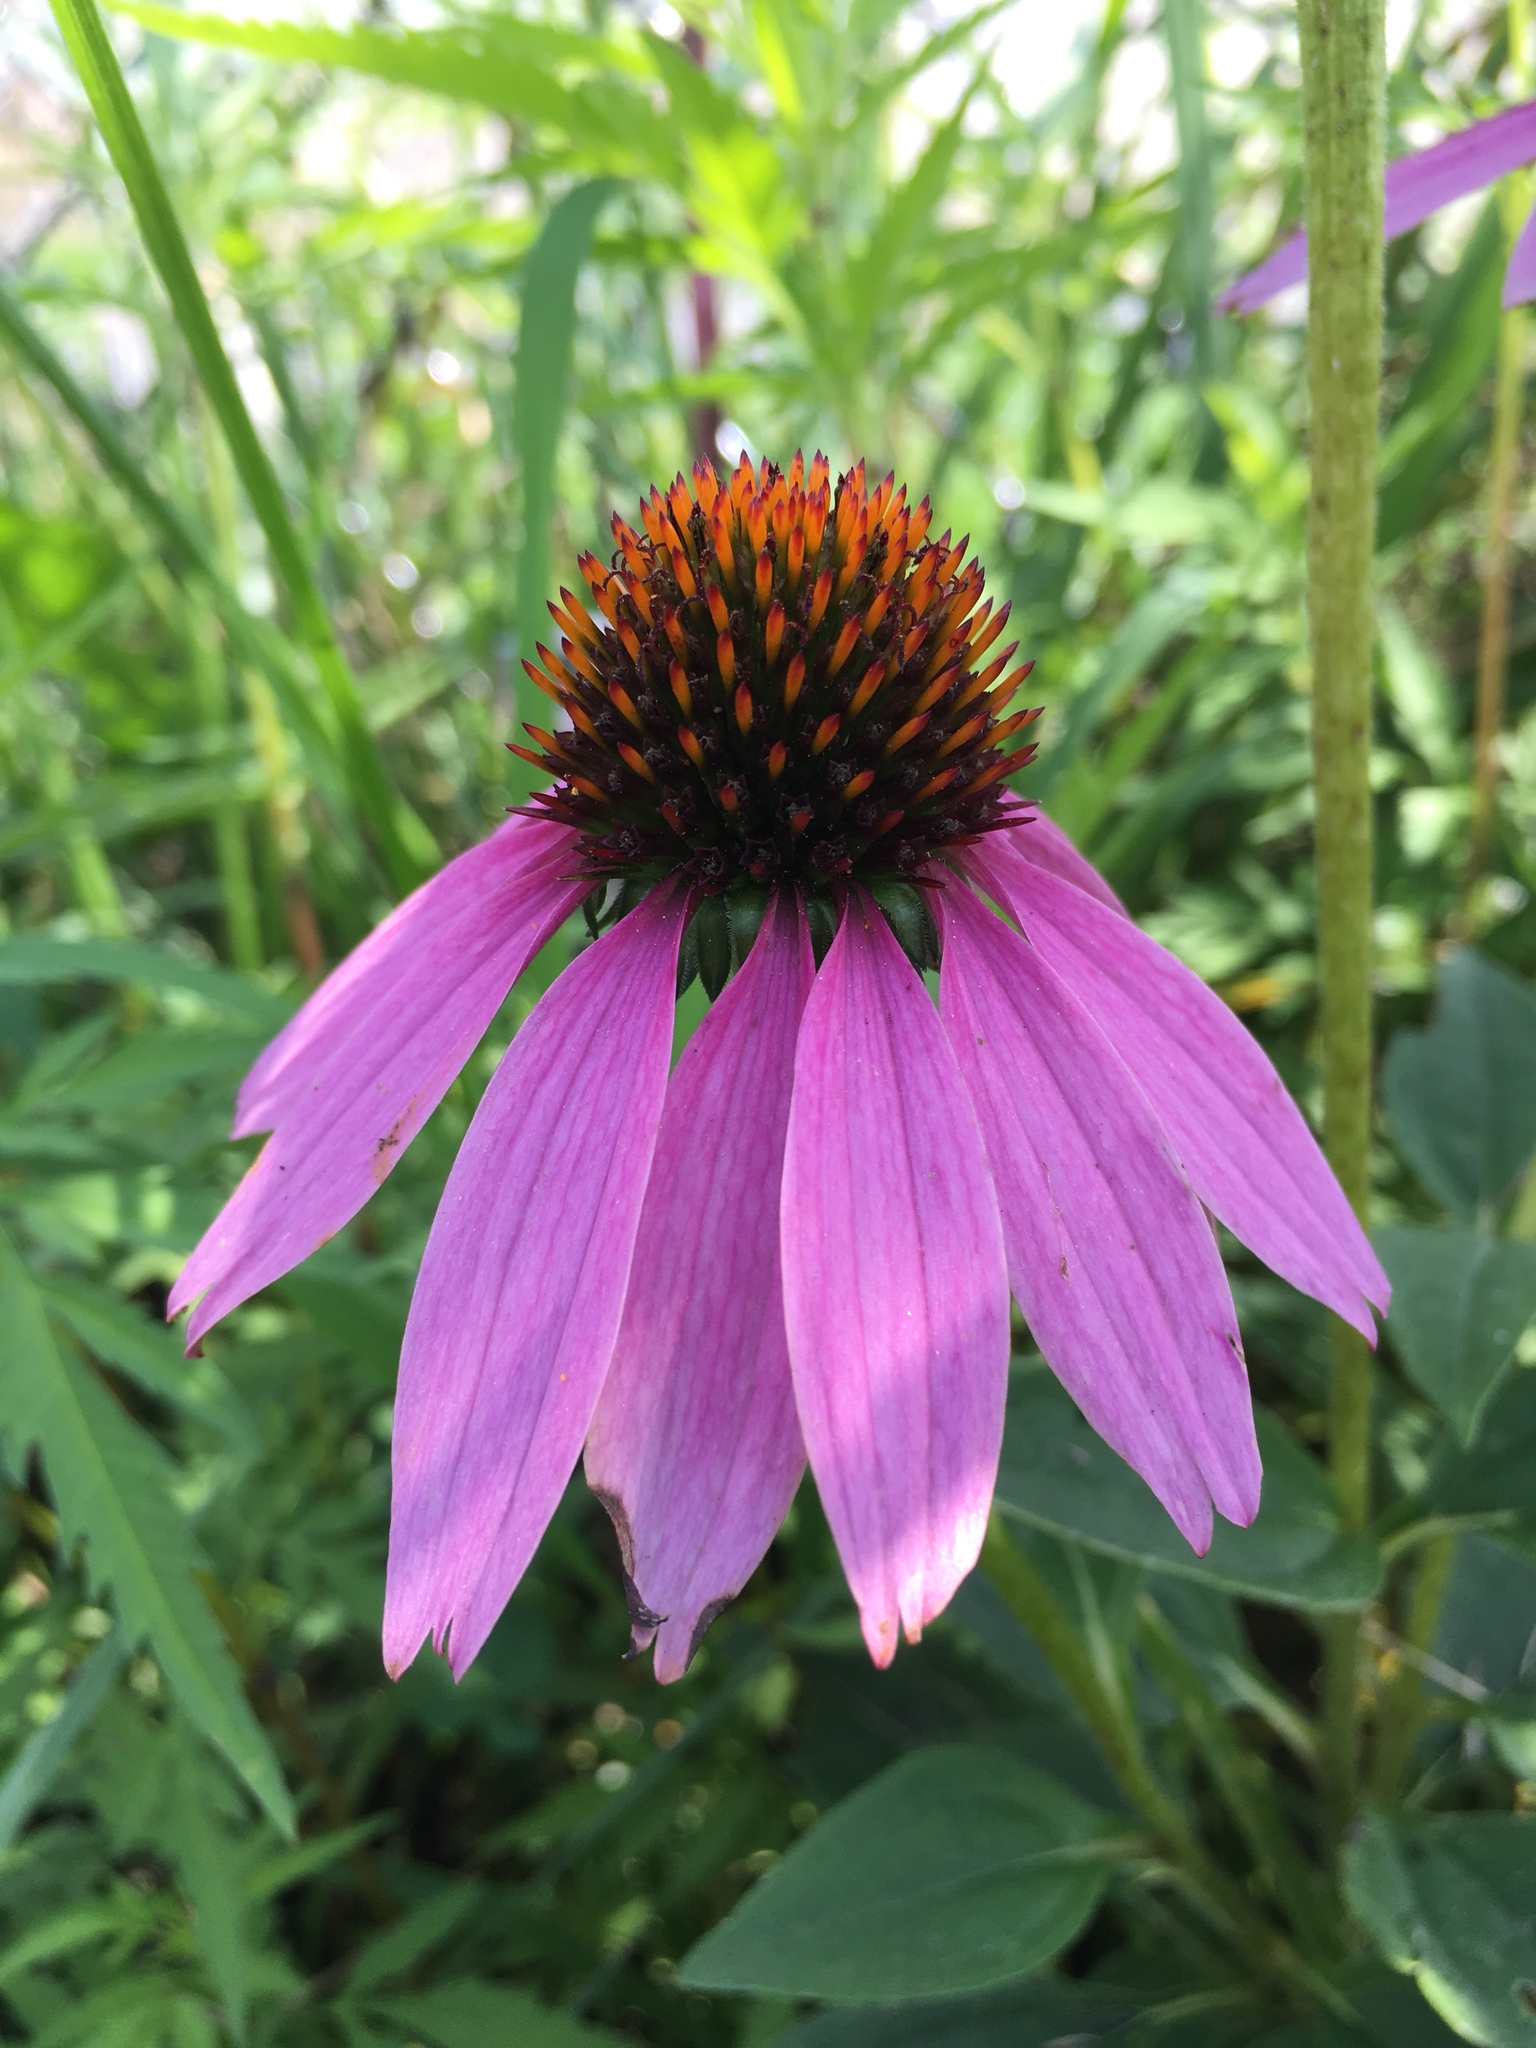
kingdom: Plantae
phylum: Tracheophyta
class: Magnoliopsida
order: Asterales
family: Asteraceae
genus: Echinacea
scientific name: Echinacea purpurea
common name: Broad-leaved purple coneflower
